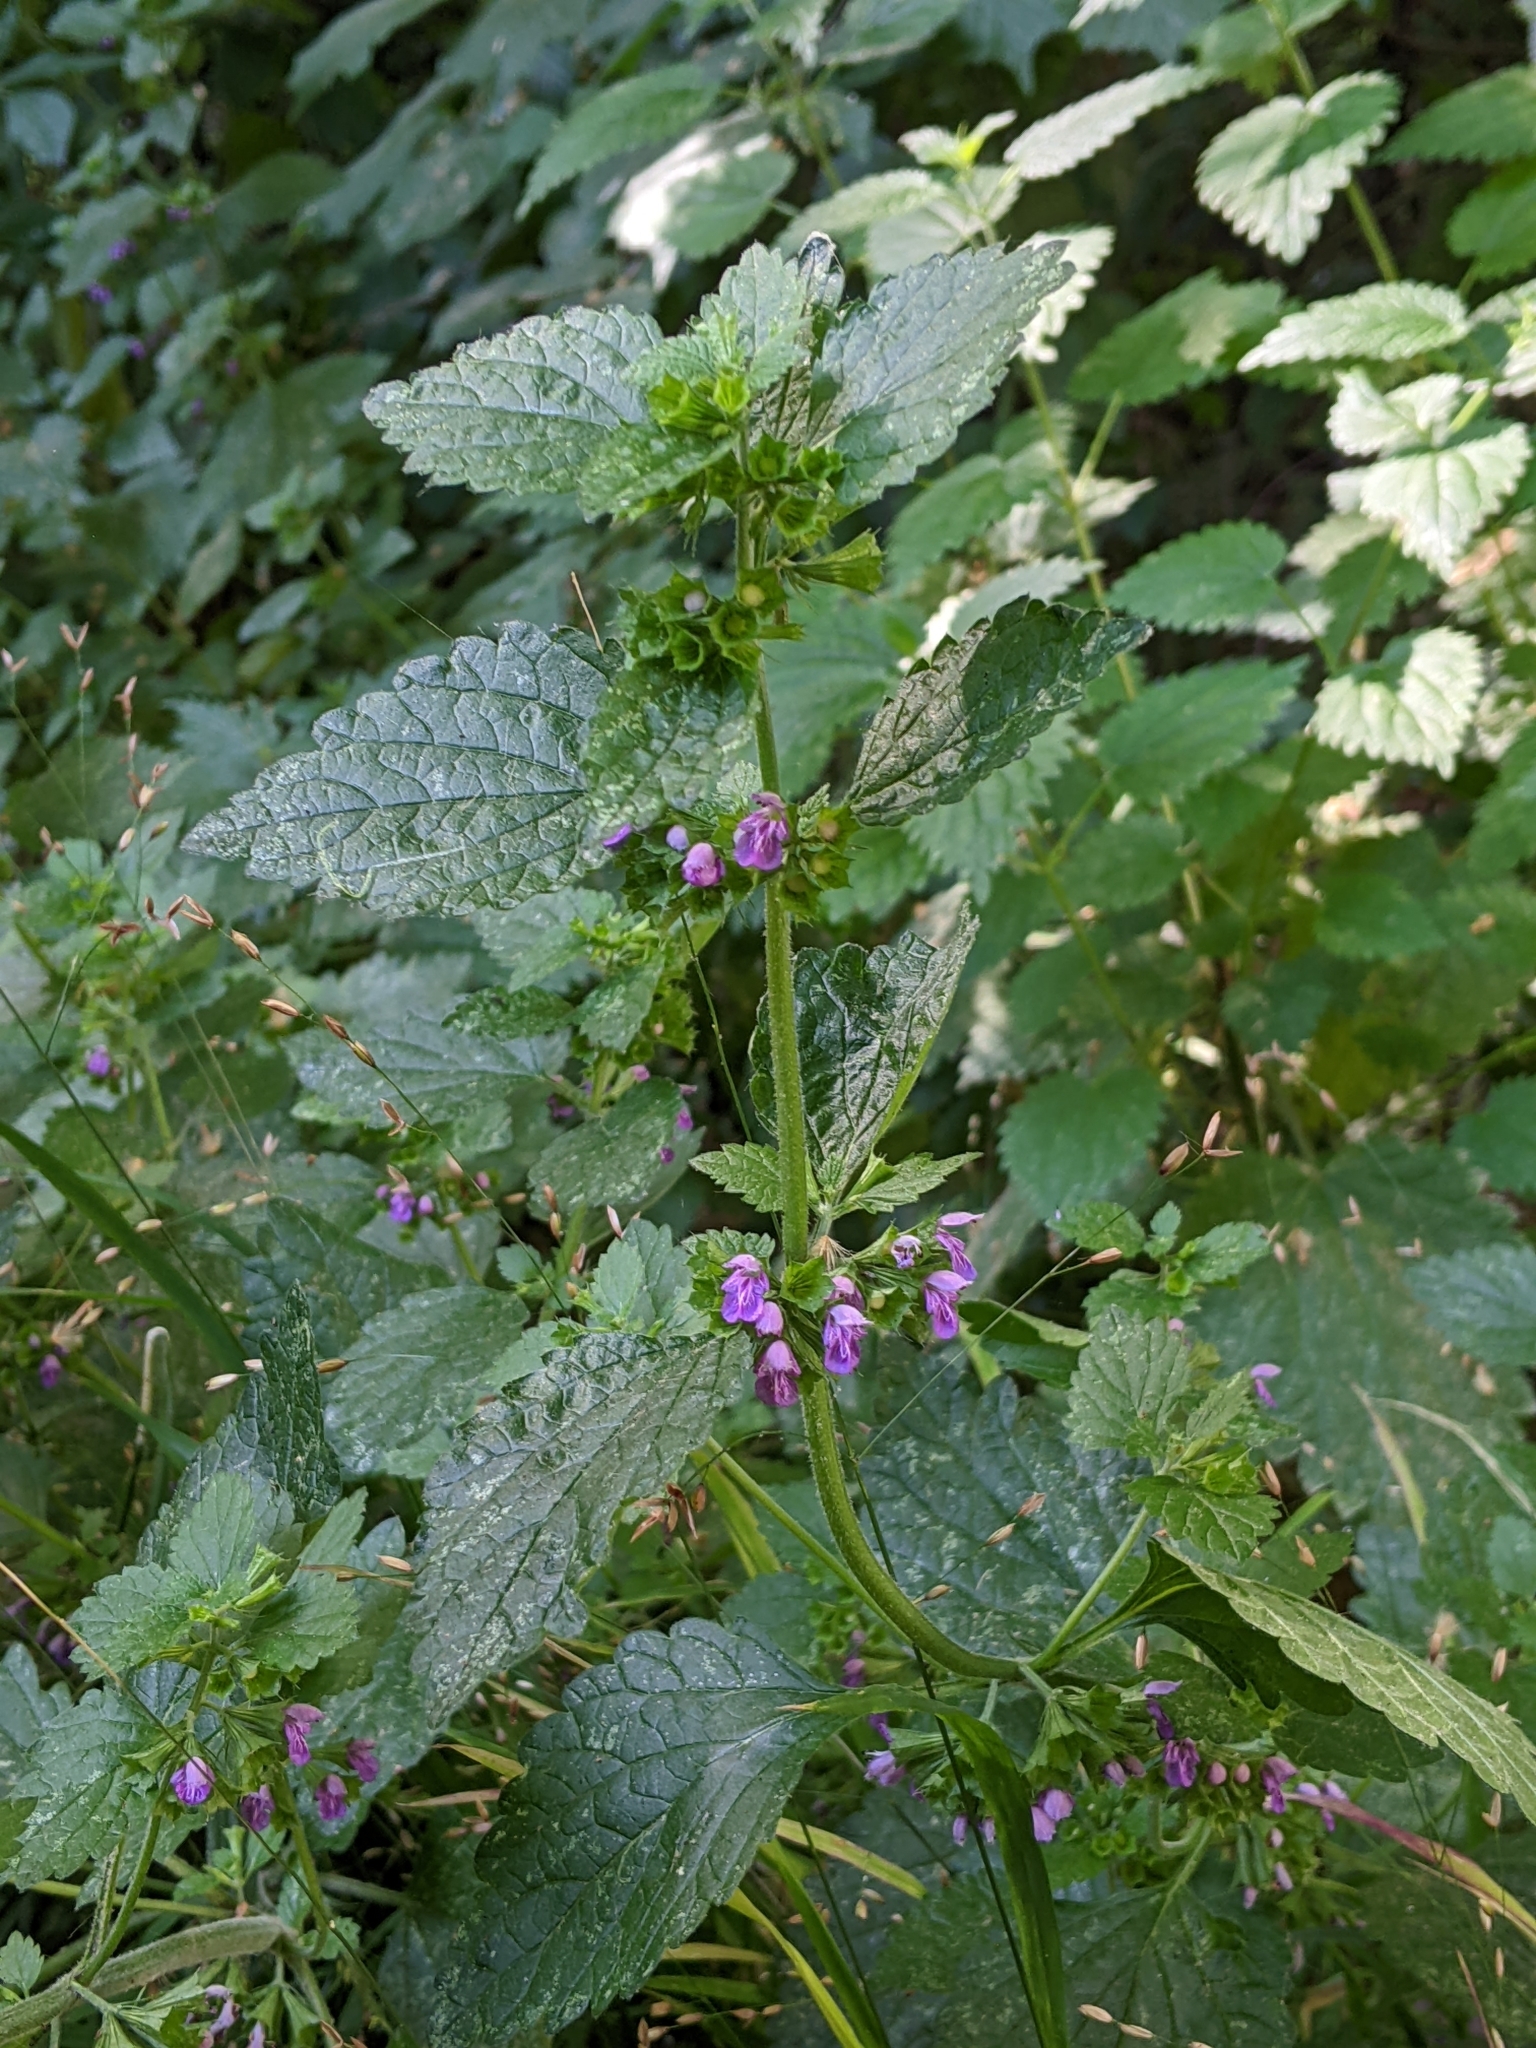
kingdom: Plantae
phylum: Tracheophyta
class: Magnoliopsida
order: Lamiales
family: Lamiaceae
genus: Ballota
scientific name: Ballota nigra
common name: Black horehound
